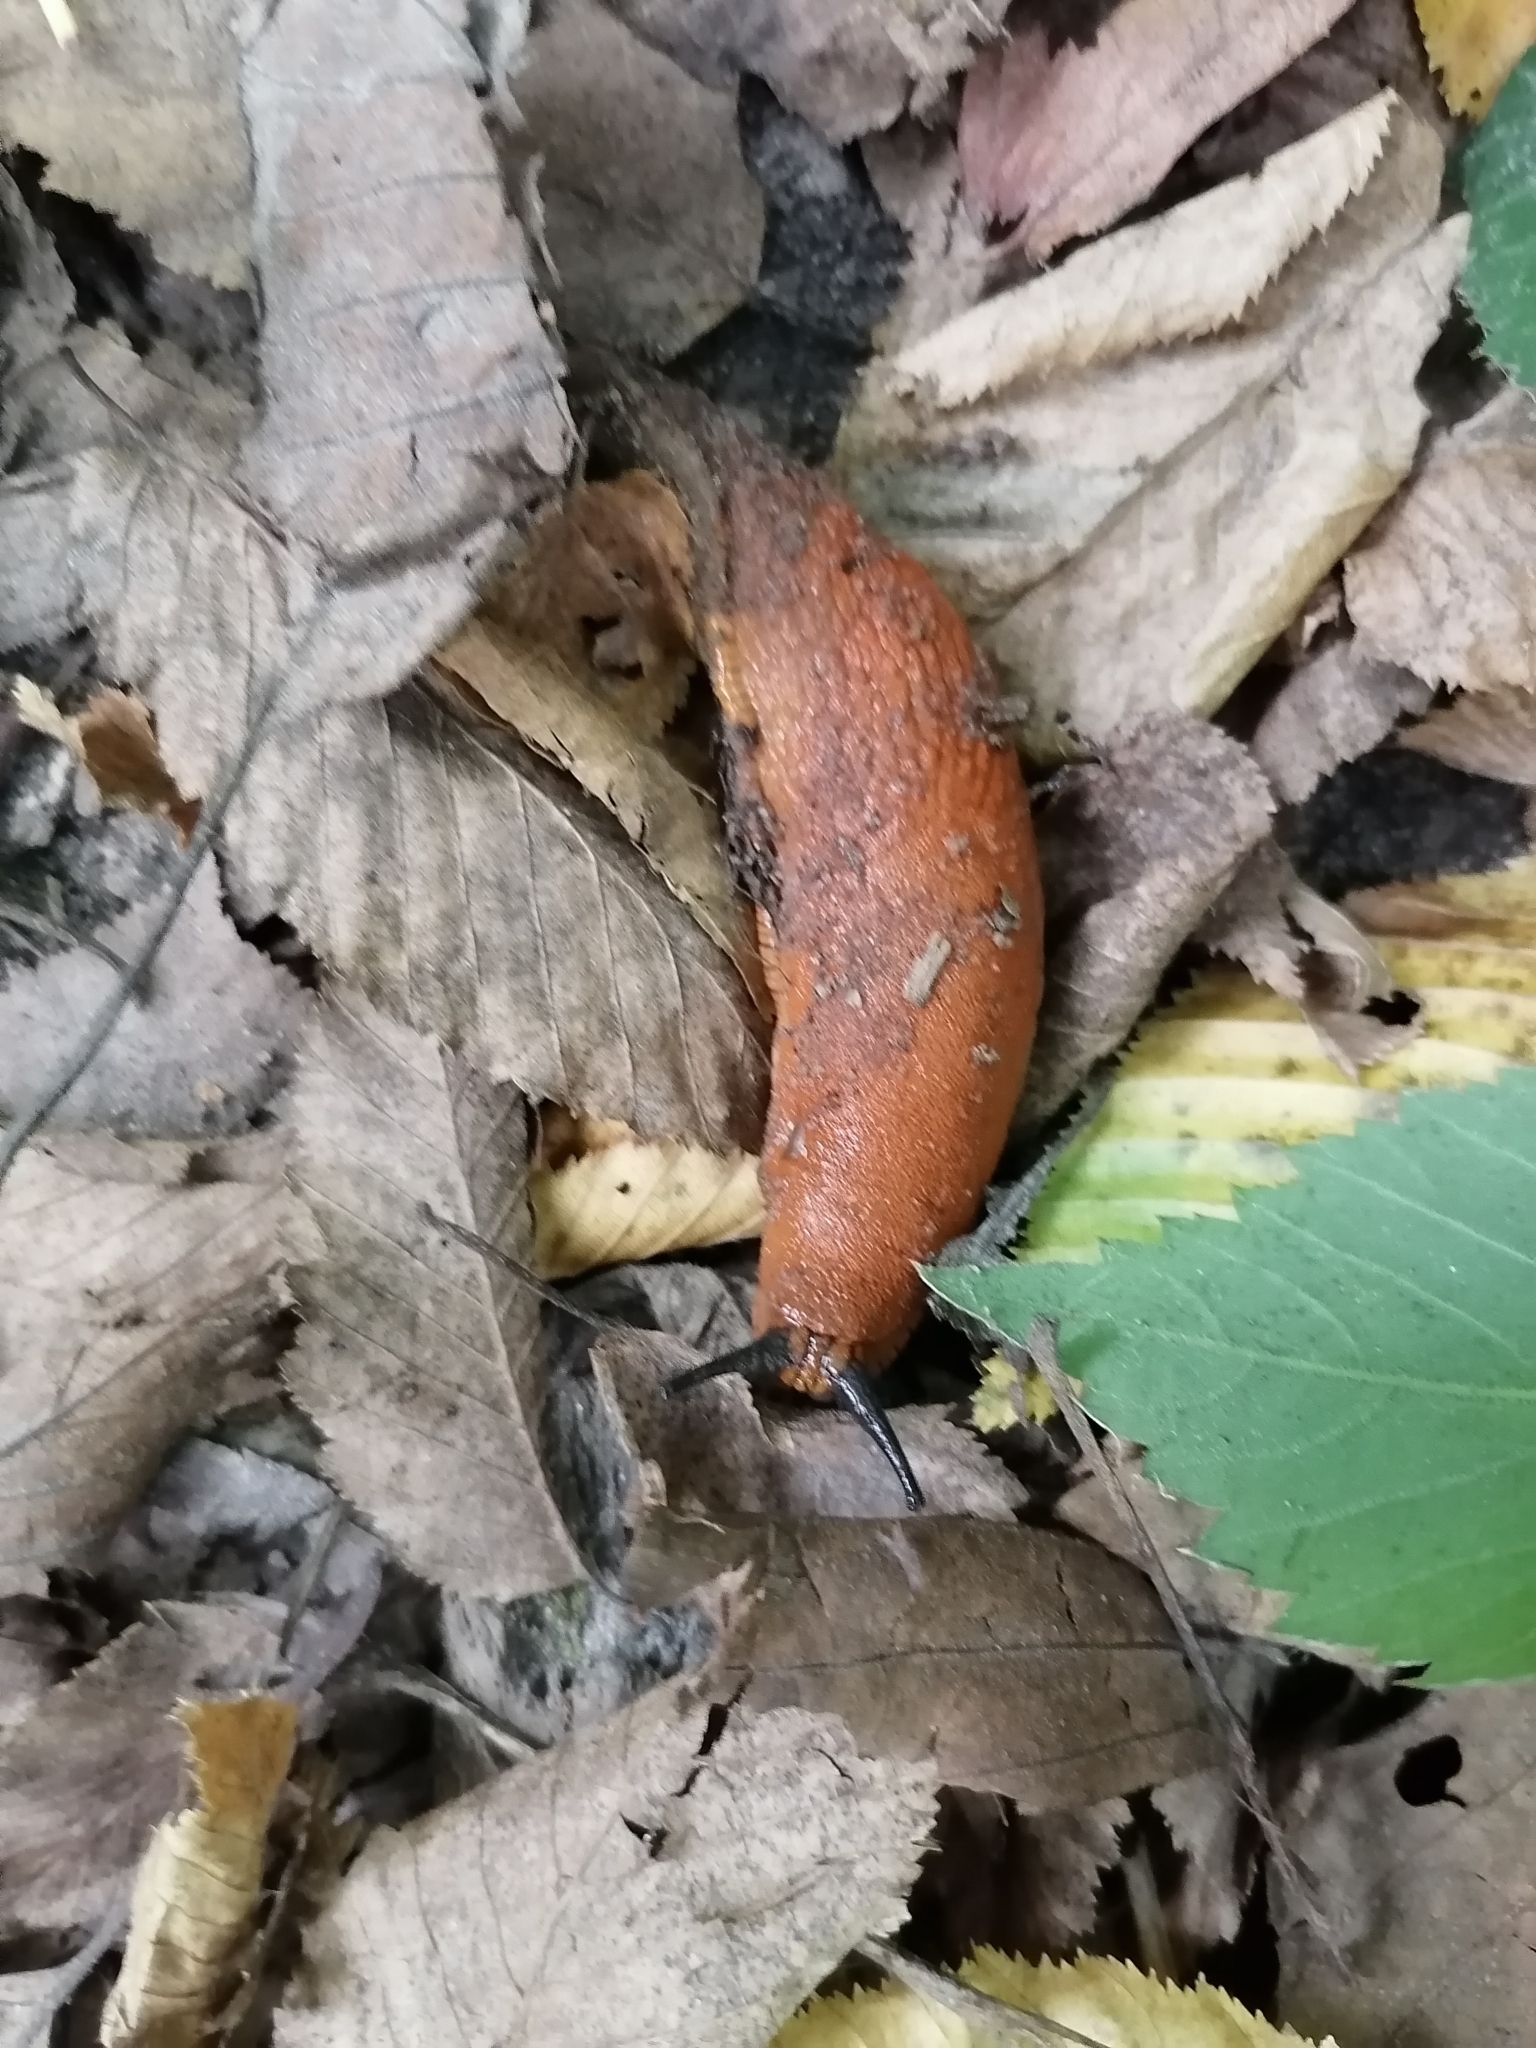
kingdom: Animalia
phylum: Mollusca
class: Gastropoda
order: Stylommatophora
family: Arionidae
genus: Arion
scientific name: Arion vulgaris
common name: Lusitanian slug
